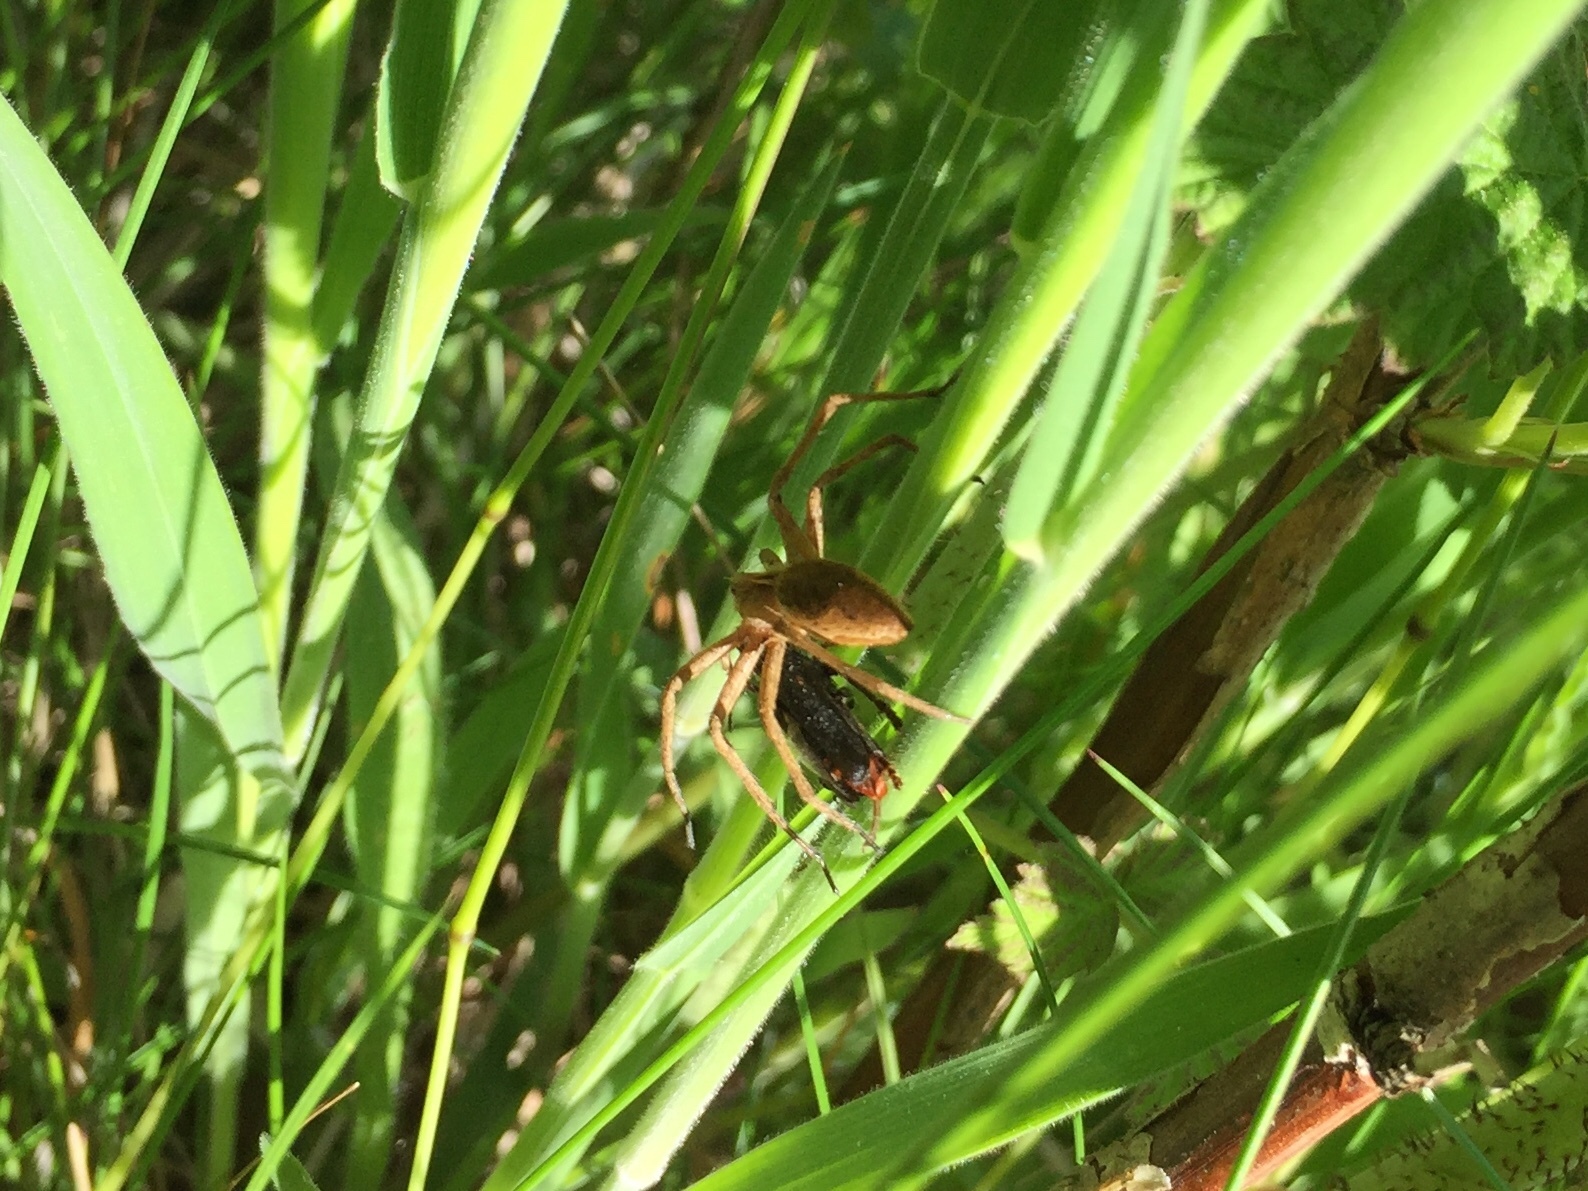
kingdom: Animalia
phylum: Arthropoda
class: Arachnida
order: Araneae
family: Pisauridae
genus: Pisaura
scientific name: Pisaura mirabilis
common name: Tent spider
